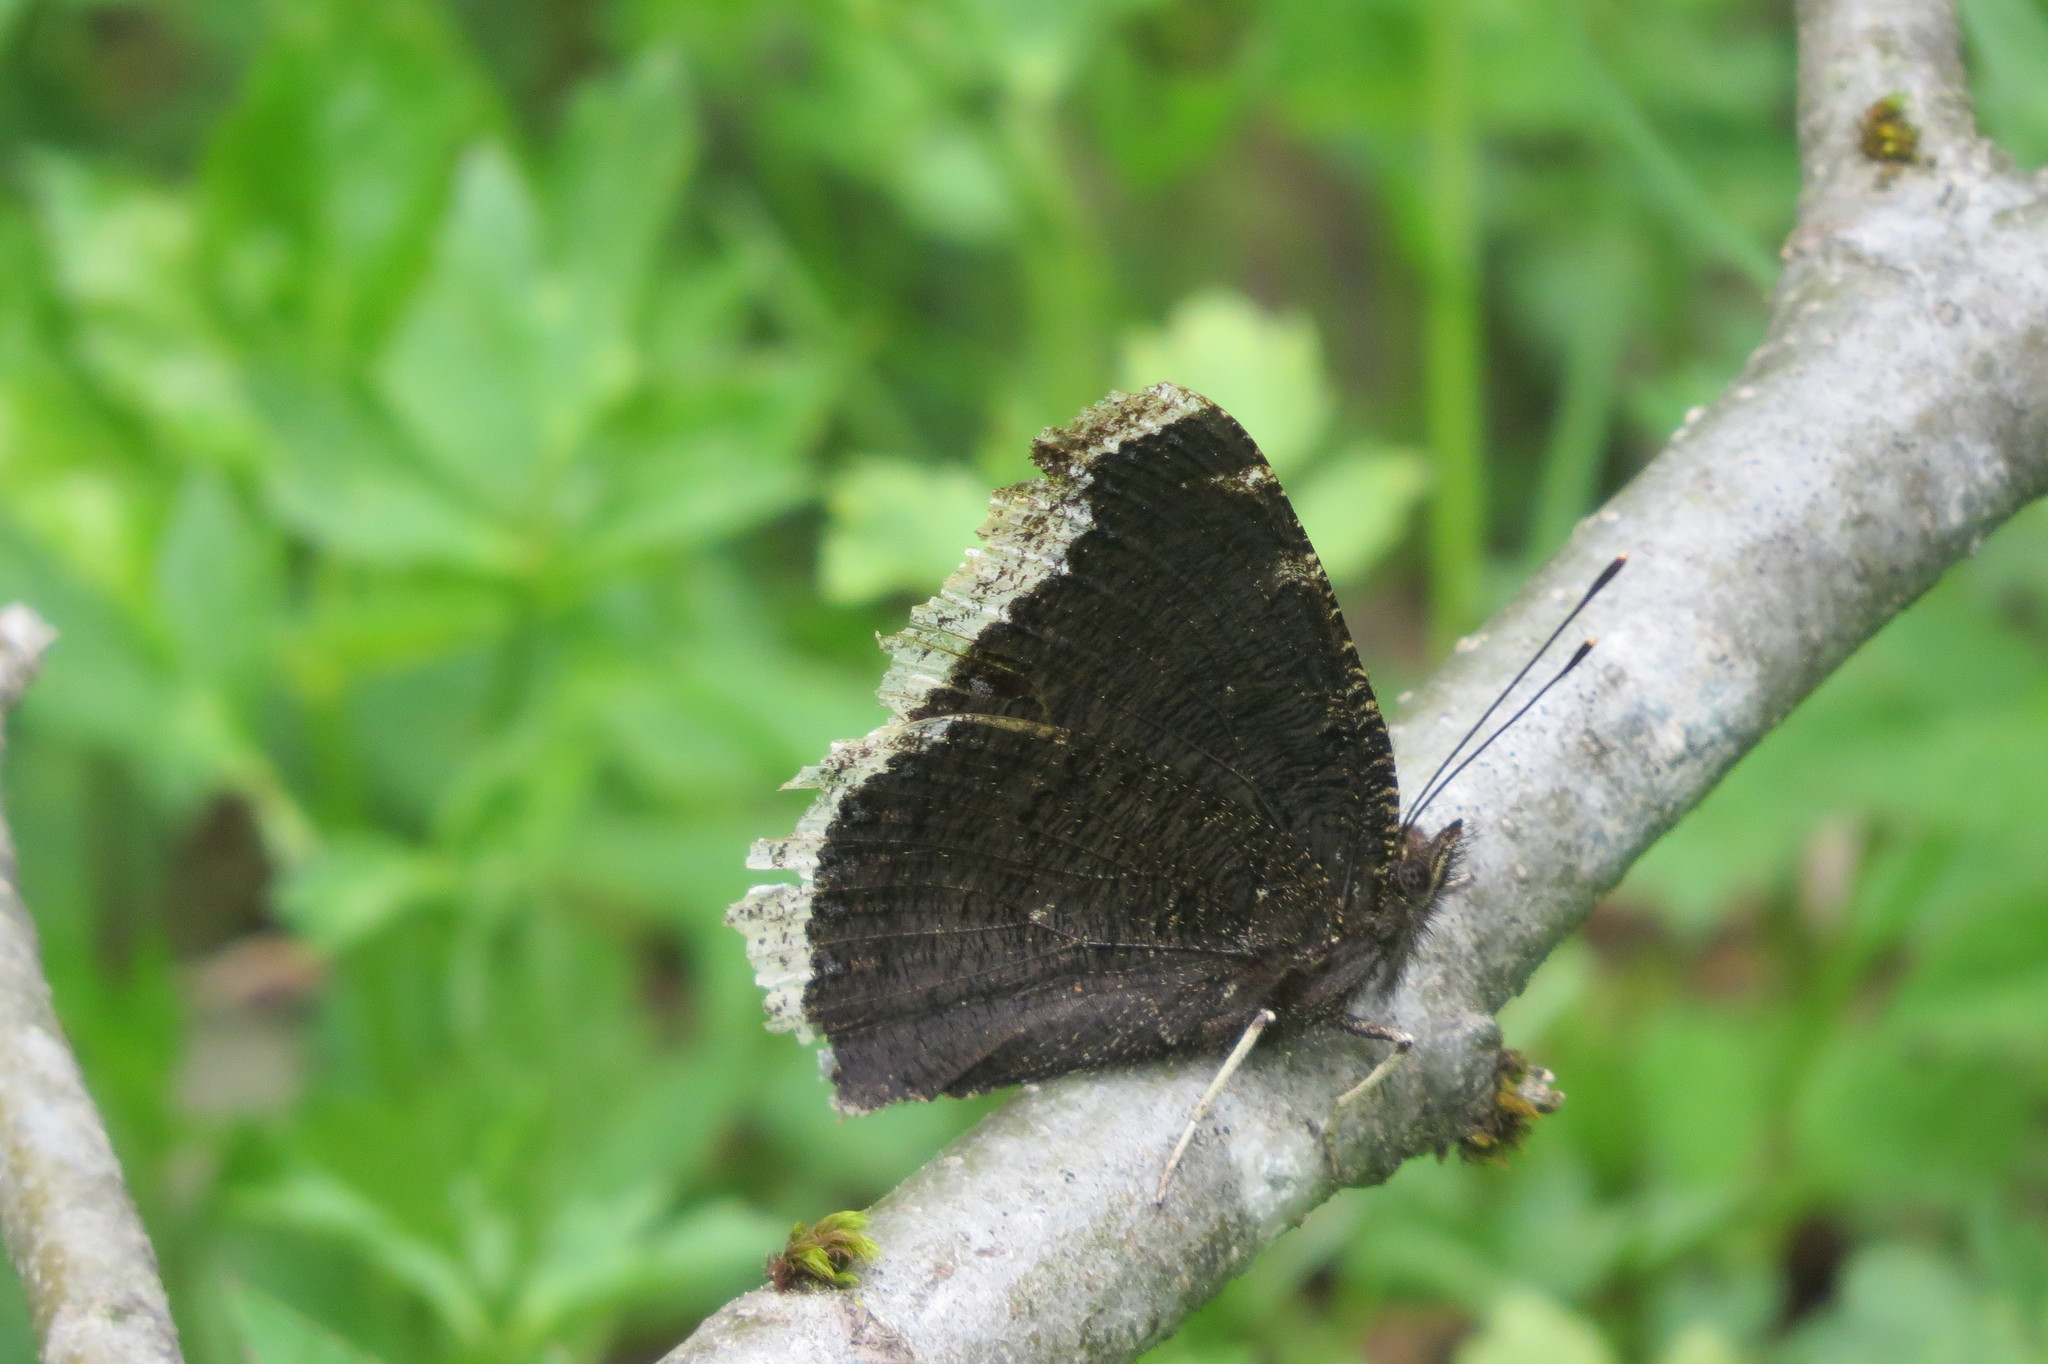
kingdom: Animalia
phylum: Arthropoda
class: Insecta
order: Lepidoptera
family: Nymphalidae
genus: Nymphalis
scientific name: Nymphalis antiopa
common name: Camberwell beauty
